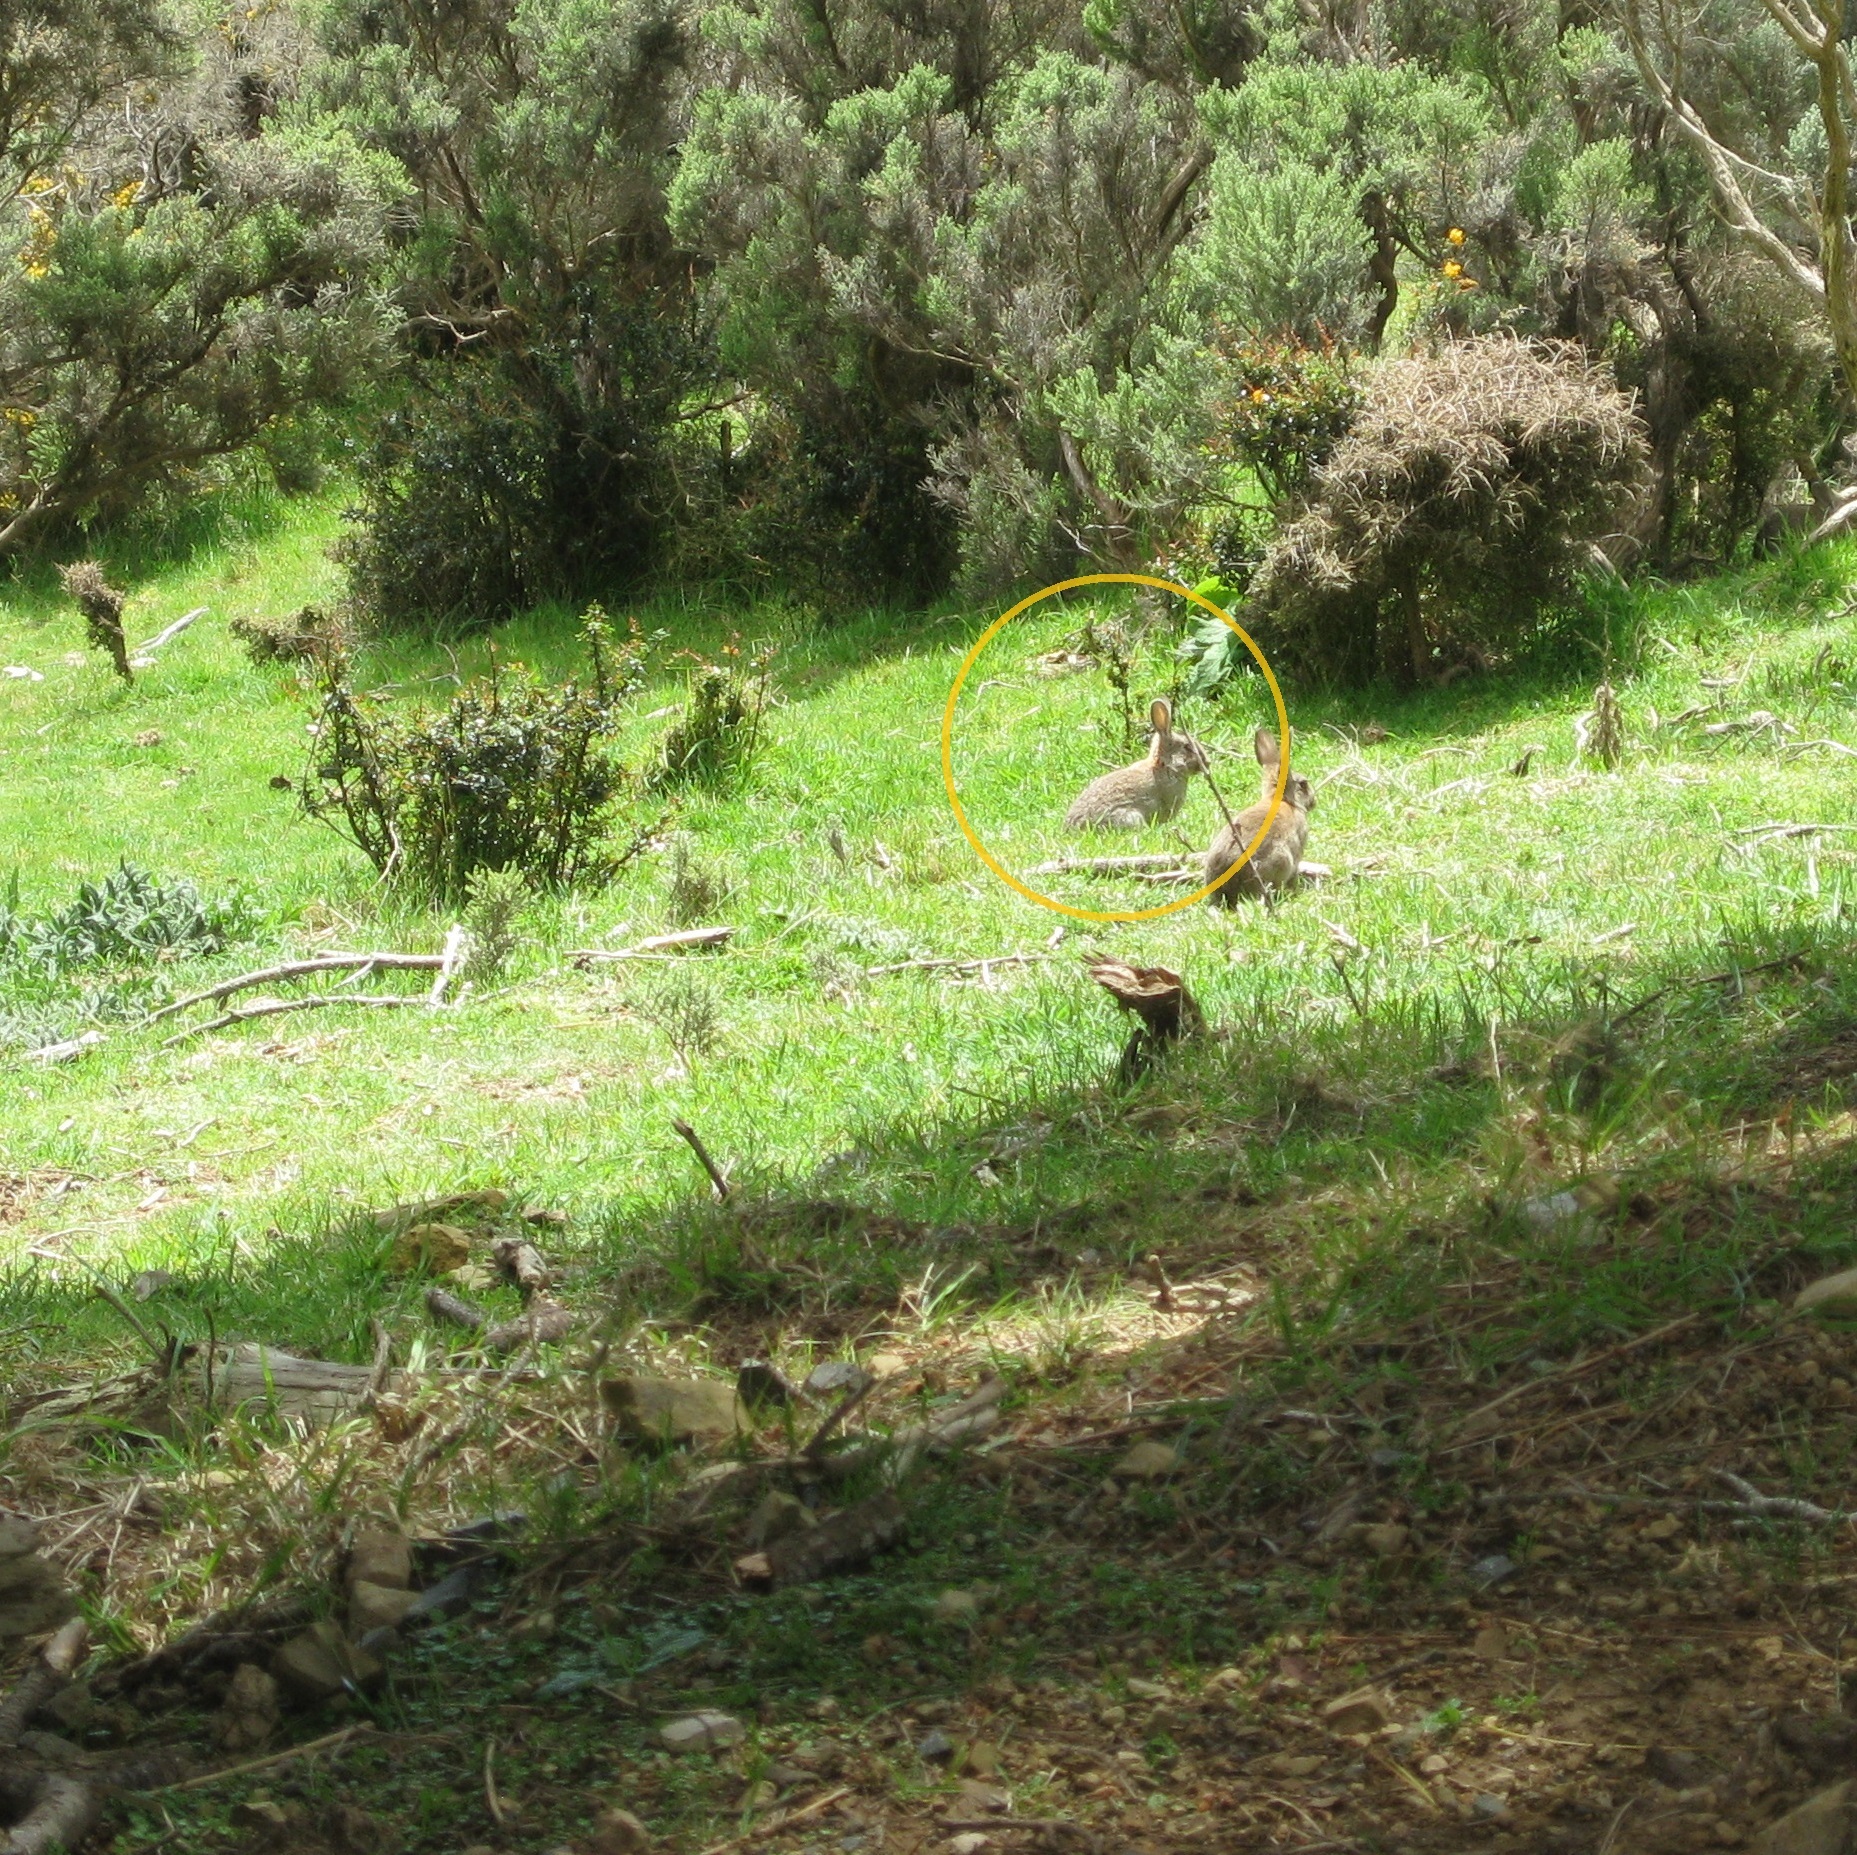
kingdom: Animalia
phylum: Chordata
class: Mammalia
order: Lagomorpha
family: Leporidae
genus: Oryctolagus
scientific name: Oryctolagus cuniculus
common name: European rabbit
